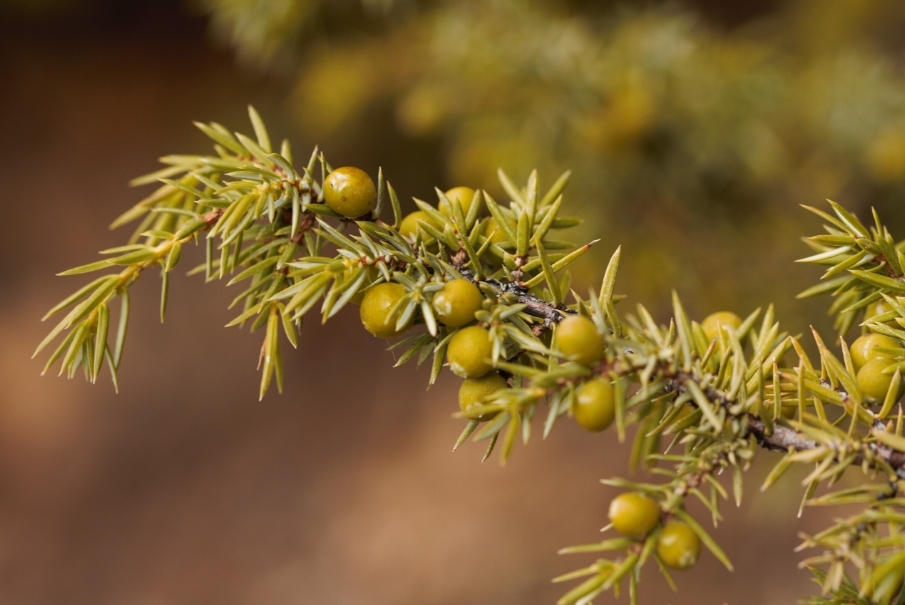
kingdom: Plantae
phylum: Tracheophyta
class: Pinopsida
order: Pinales
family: Cupressaceae
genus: Juniperus
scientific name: Juniperus communis
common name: Common juniper
